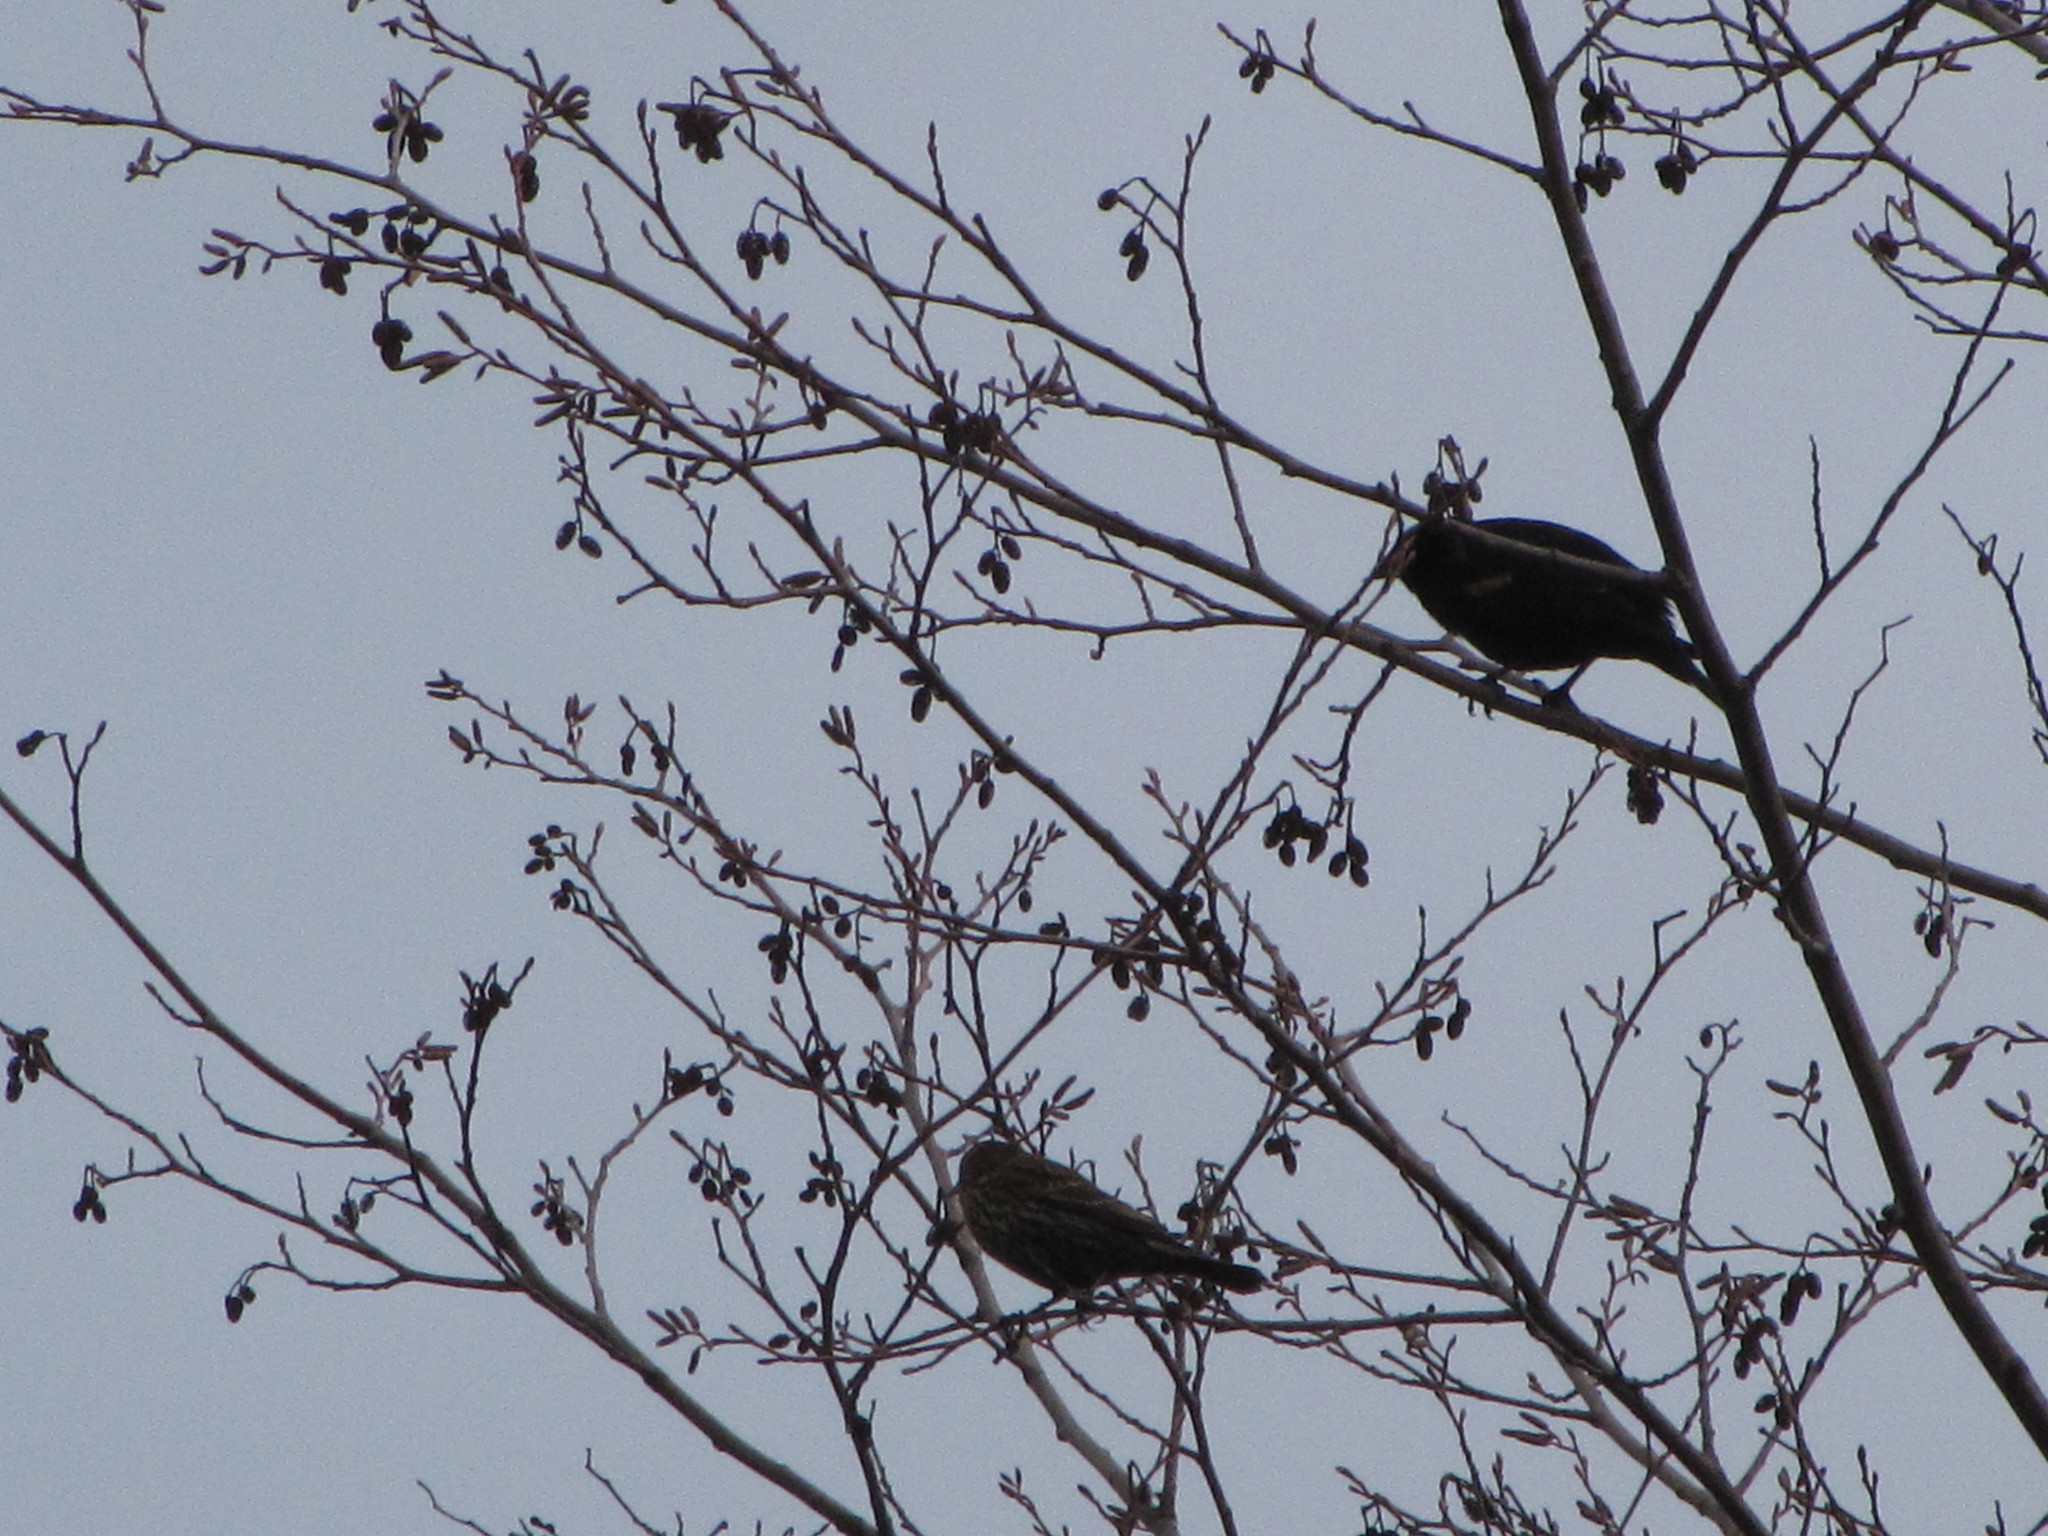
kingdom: Animalia
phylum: Chordata
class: Aves
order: Passeriformes
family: Icteridae
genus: Agelaius
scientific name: Agelaius phoeniceus
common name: Red-winged blackbird
